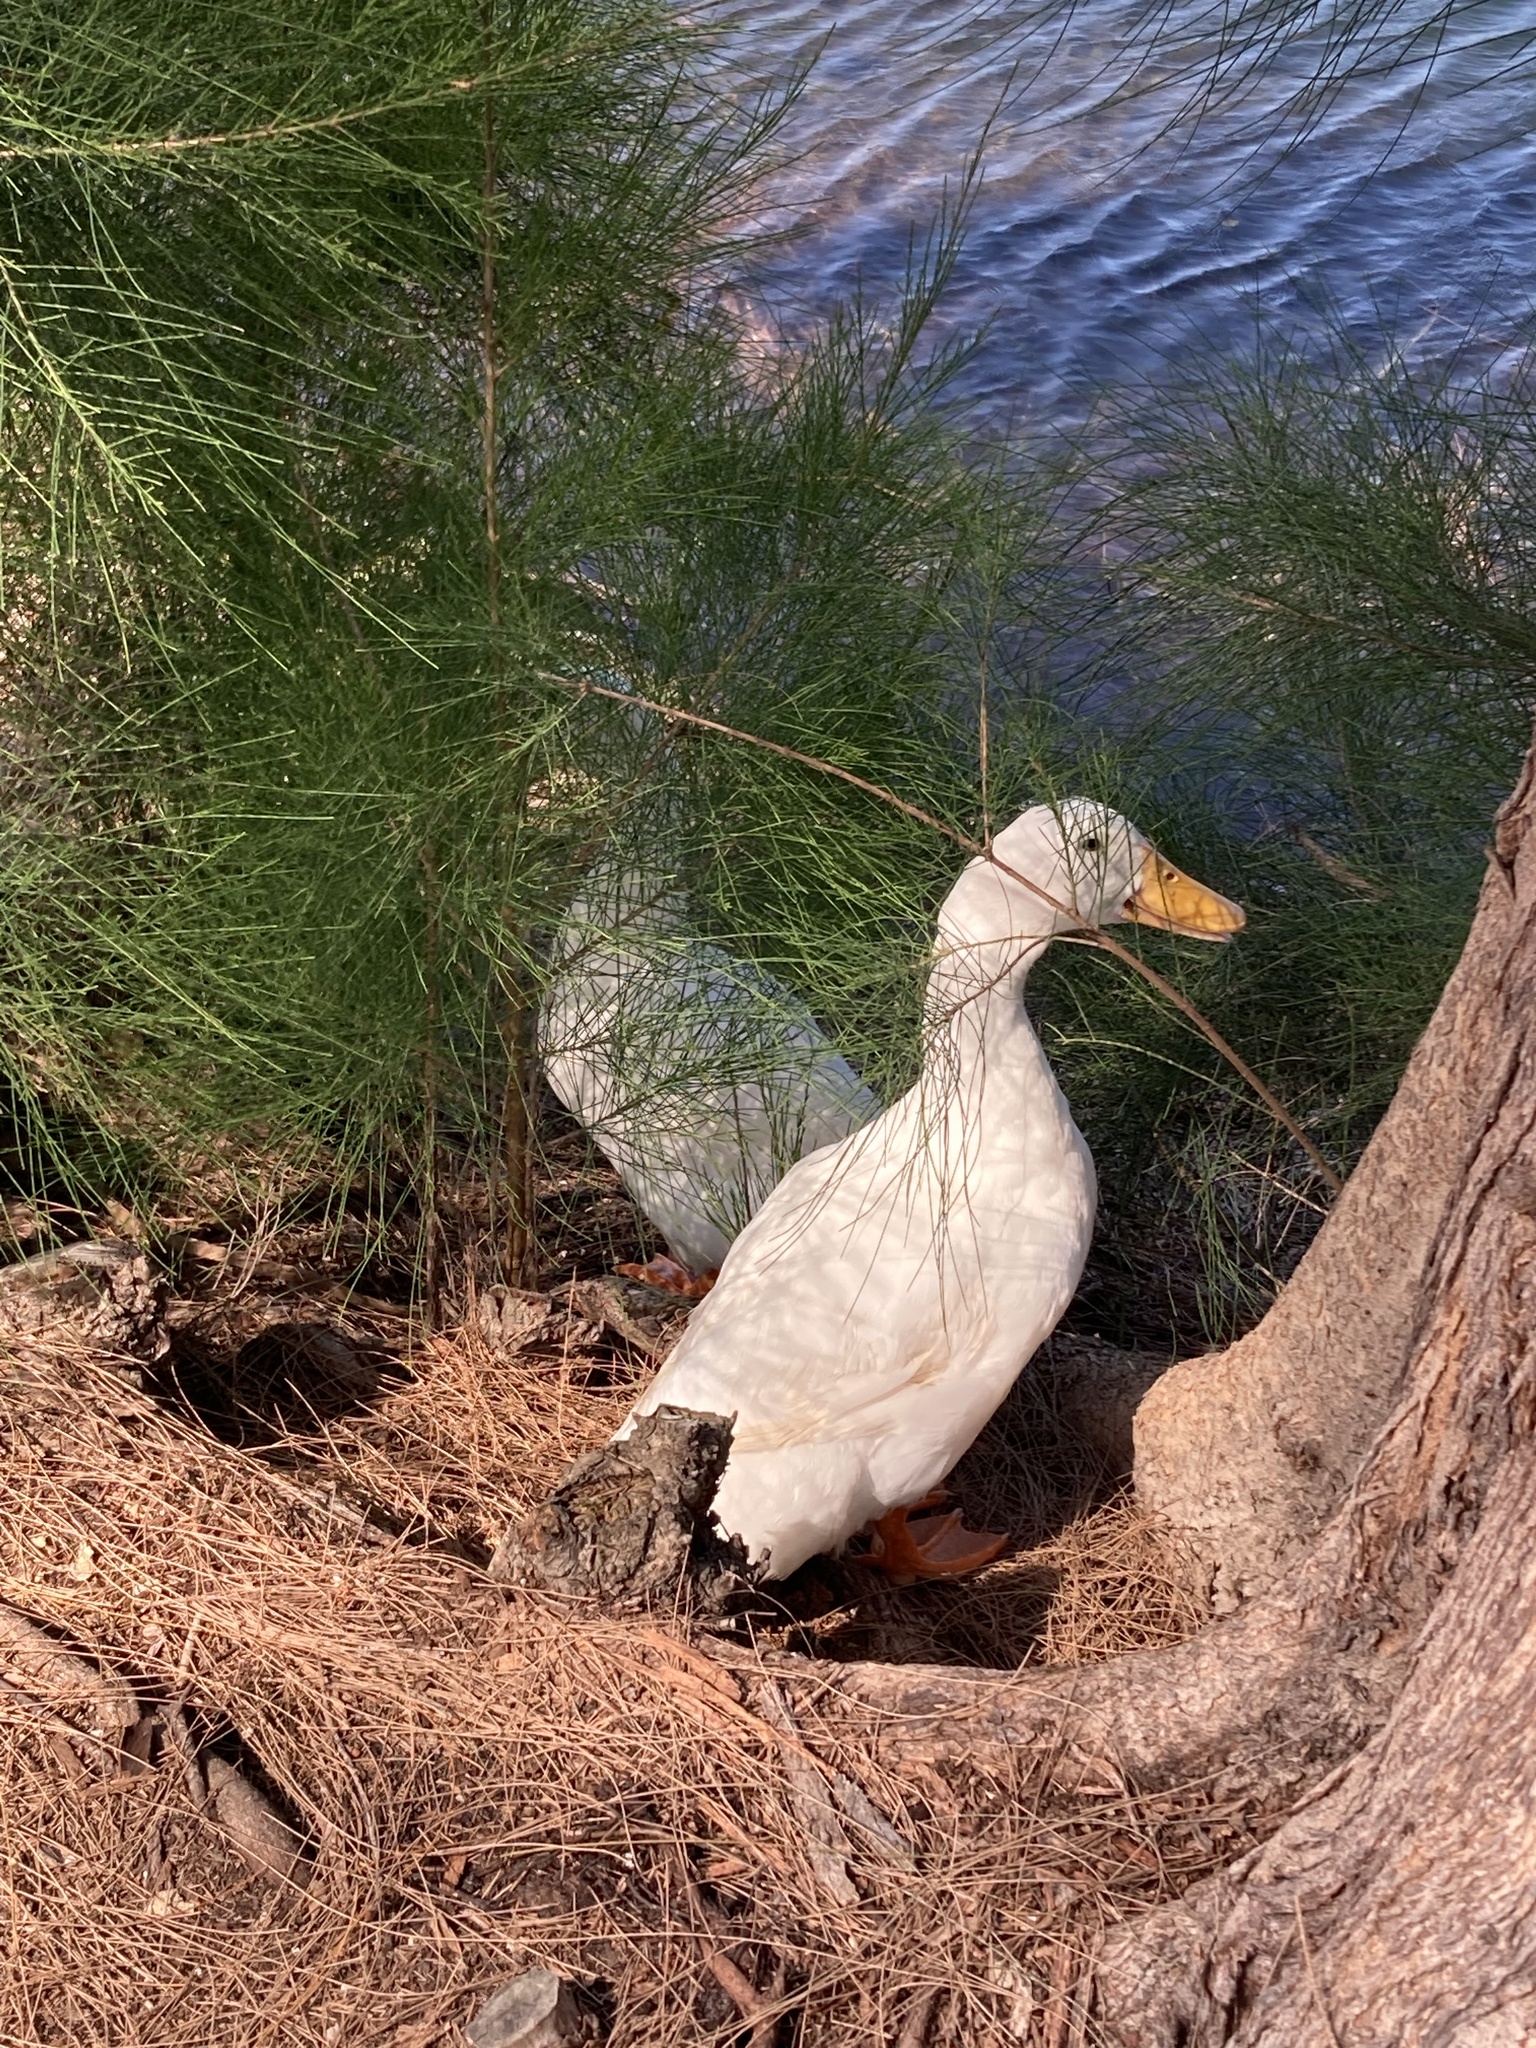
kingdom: Animalia
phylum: Chordata
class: Aves
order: Anseriformes
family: Anatidae
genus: Anas
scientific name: Anas platyrhynchos
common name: Mallard
